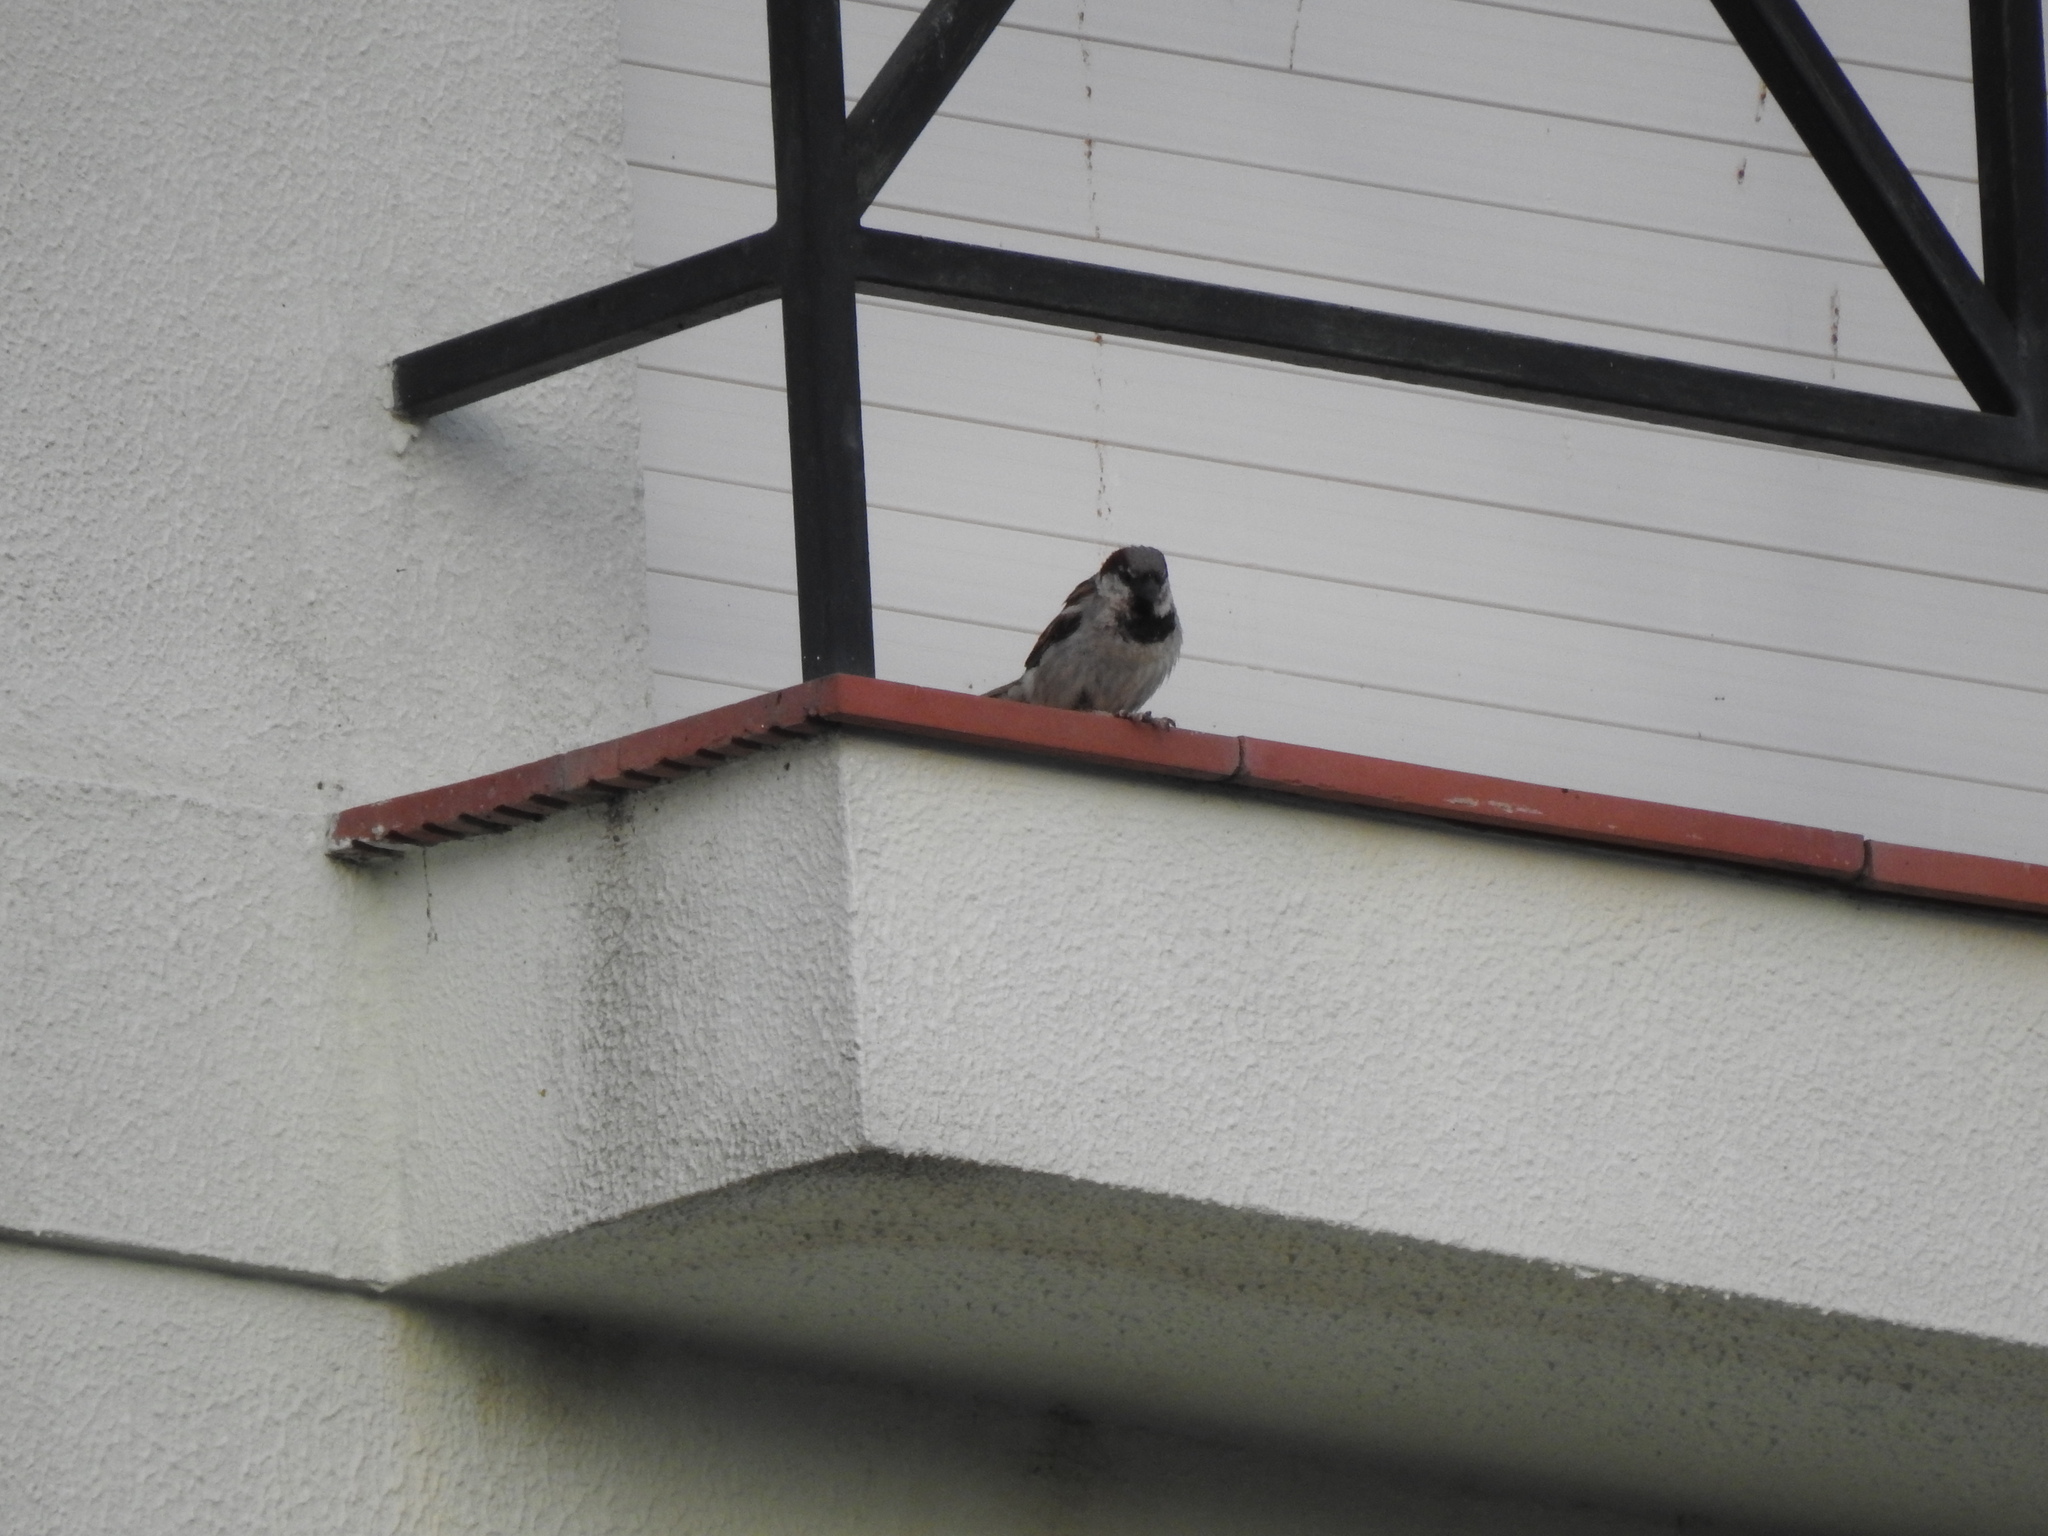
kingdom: Animalia
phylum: Chordata
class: Aves
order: Passeriformes
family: Passeridae
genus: Passer
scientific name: Passer domesticus
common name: House sparrow
